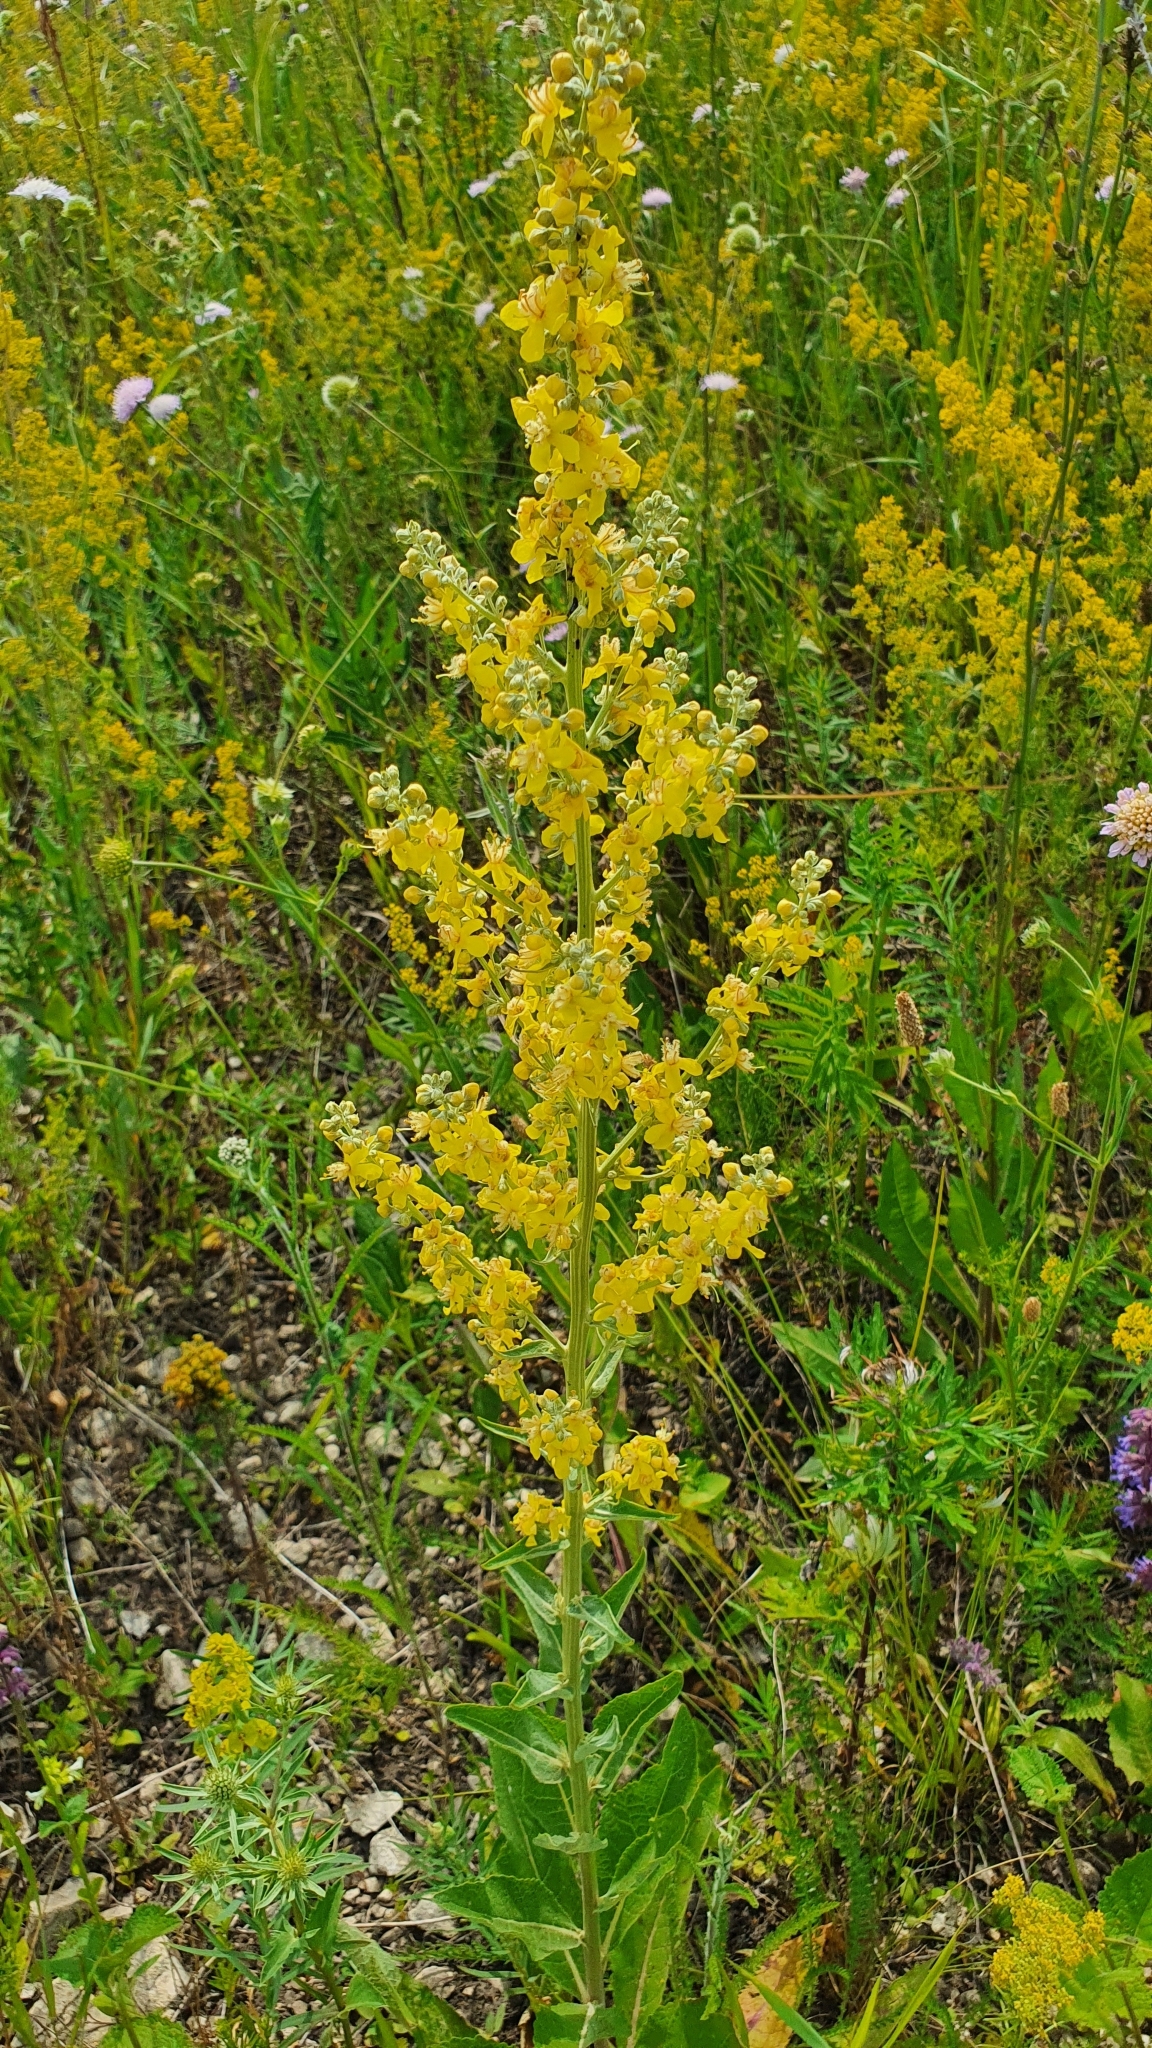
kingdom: Plantae
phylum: Tracheophyta
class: Magnoliopsida
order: Lamiales
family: Scrophulariaceae
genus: Verbascum
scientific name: Verbascum lychnitis
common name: White mullein
